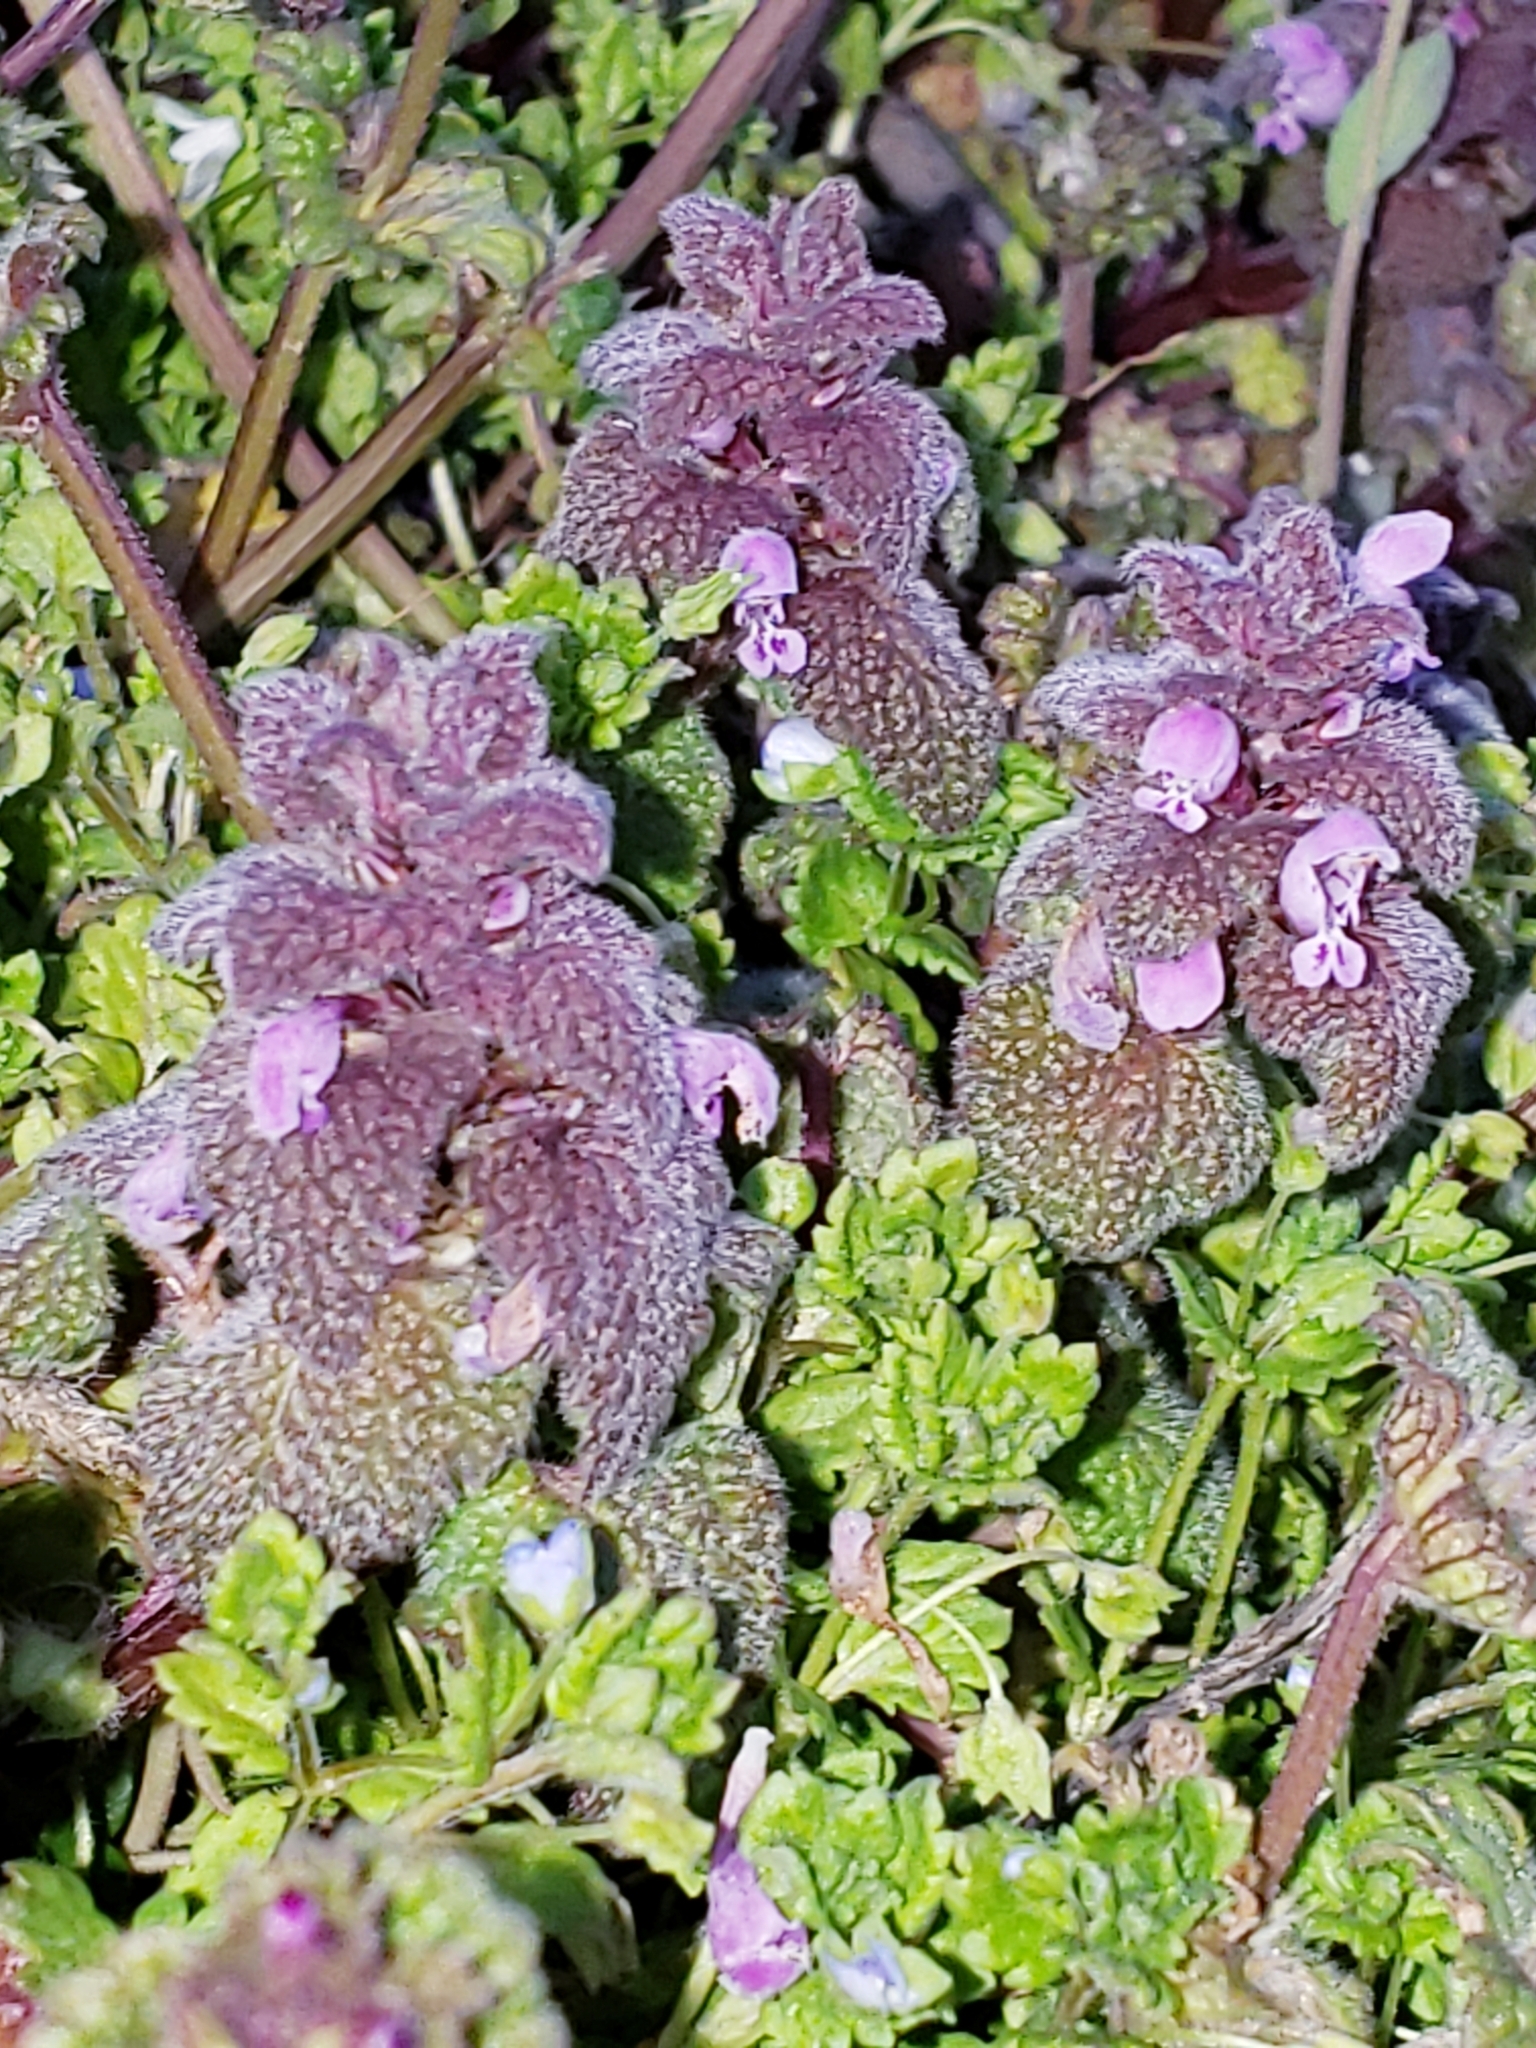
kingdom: Plantae
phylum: Tracheophyta
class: Magnoliopsida
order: Lamiales
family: Lamiaceae
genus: Lamium
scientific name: Lamium purpureum
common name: Red dead-nettle
